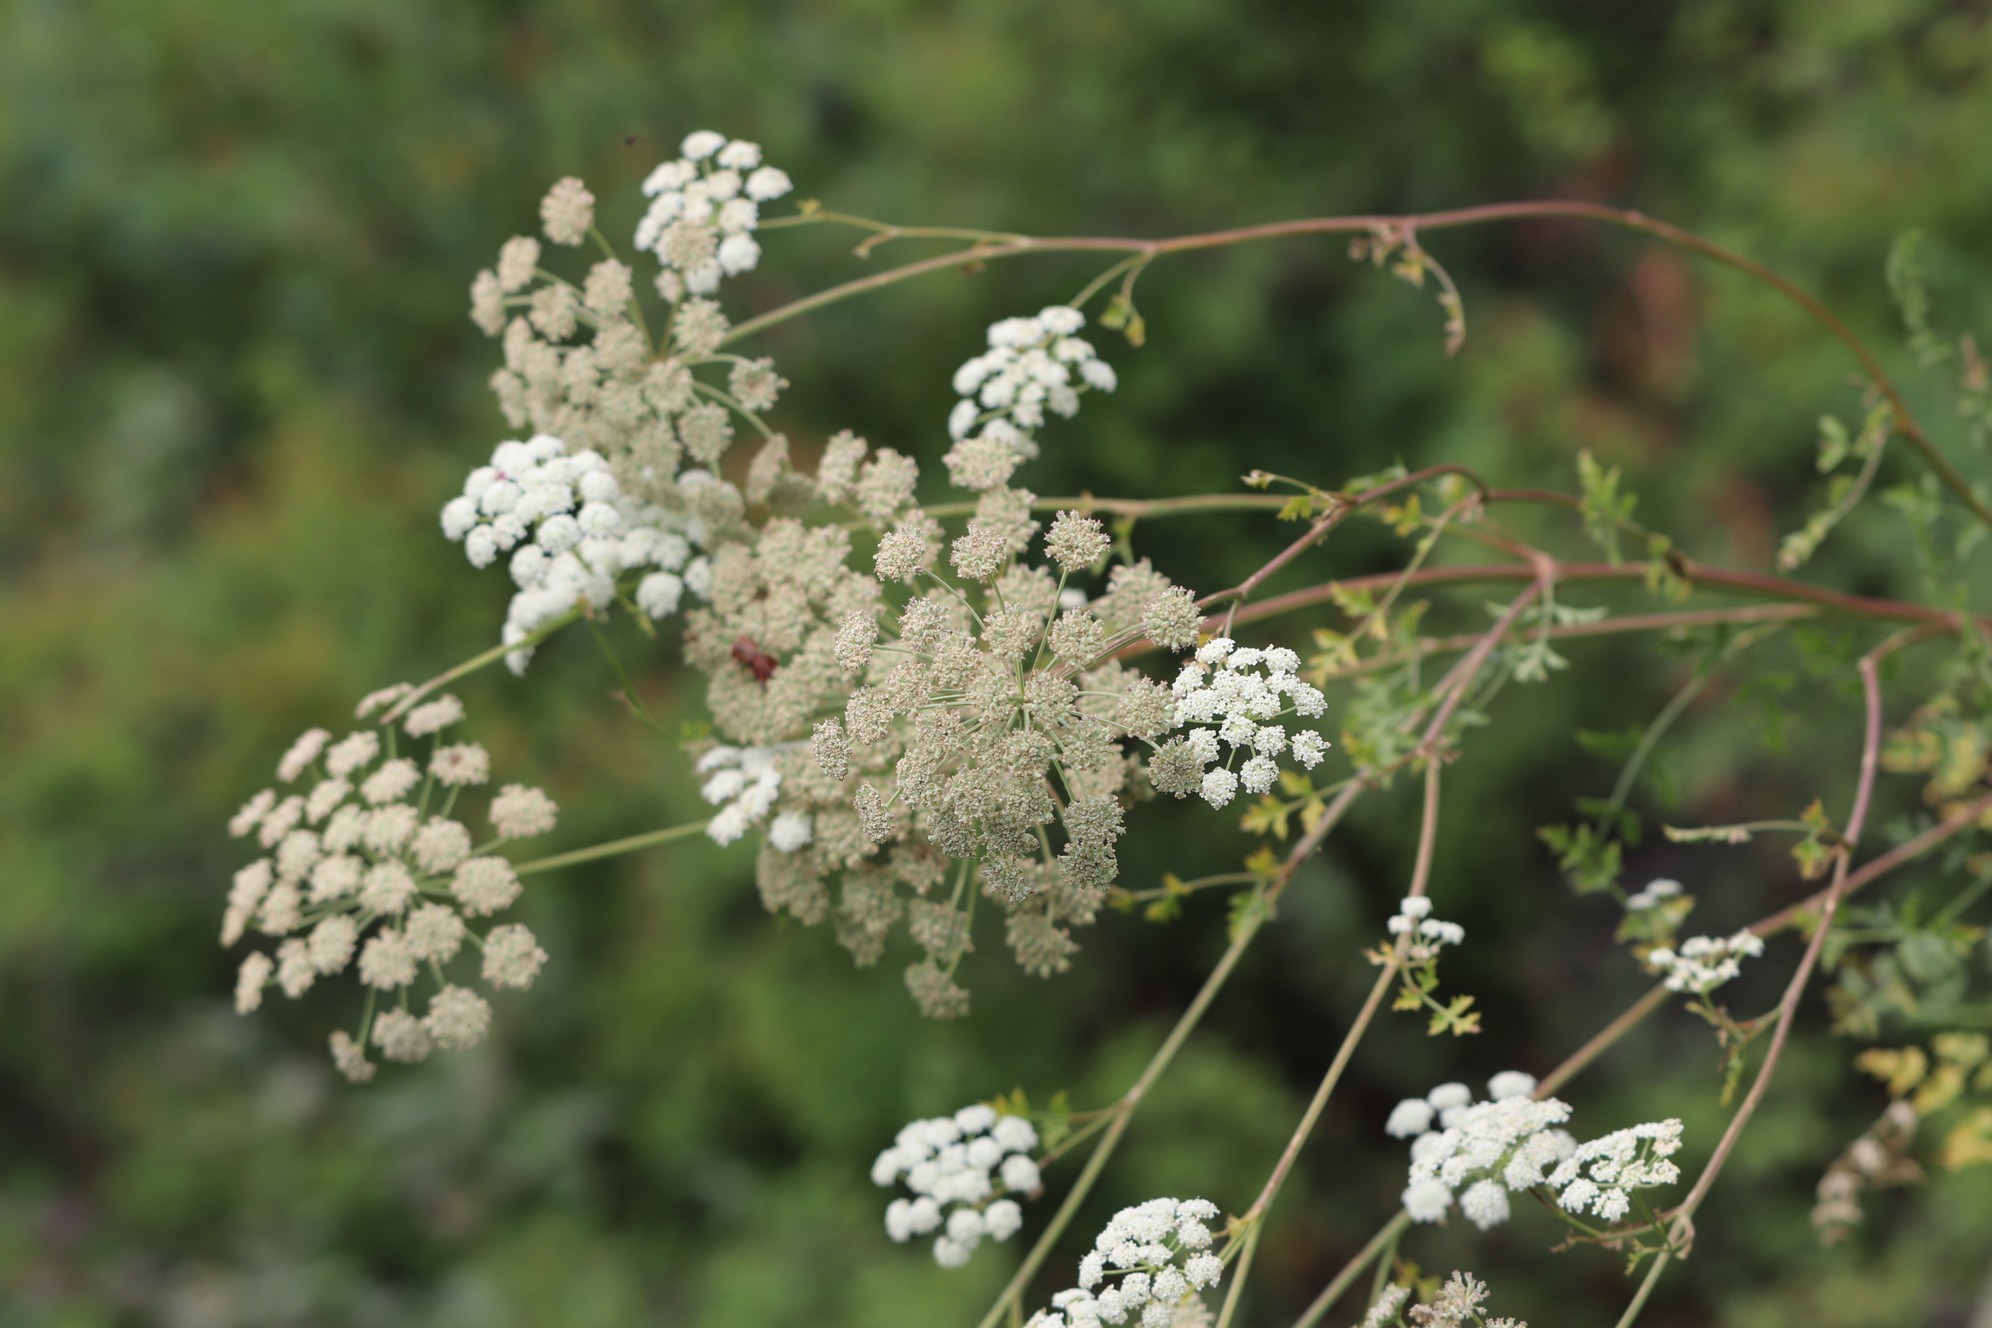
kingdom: Plantae
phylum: Tracheophyta
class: Magnoliopsida
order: Apiales
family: Apiaceae
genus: Kitagawia
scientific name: Kitagawia baicalensis
